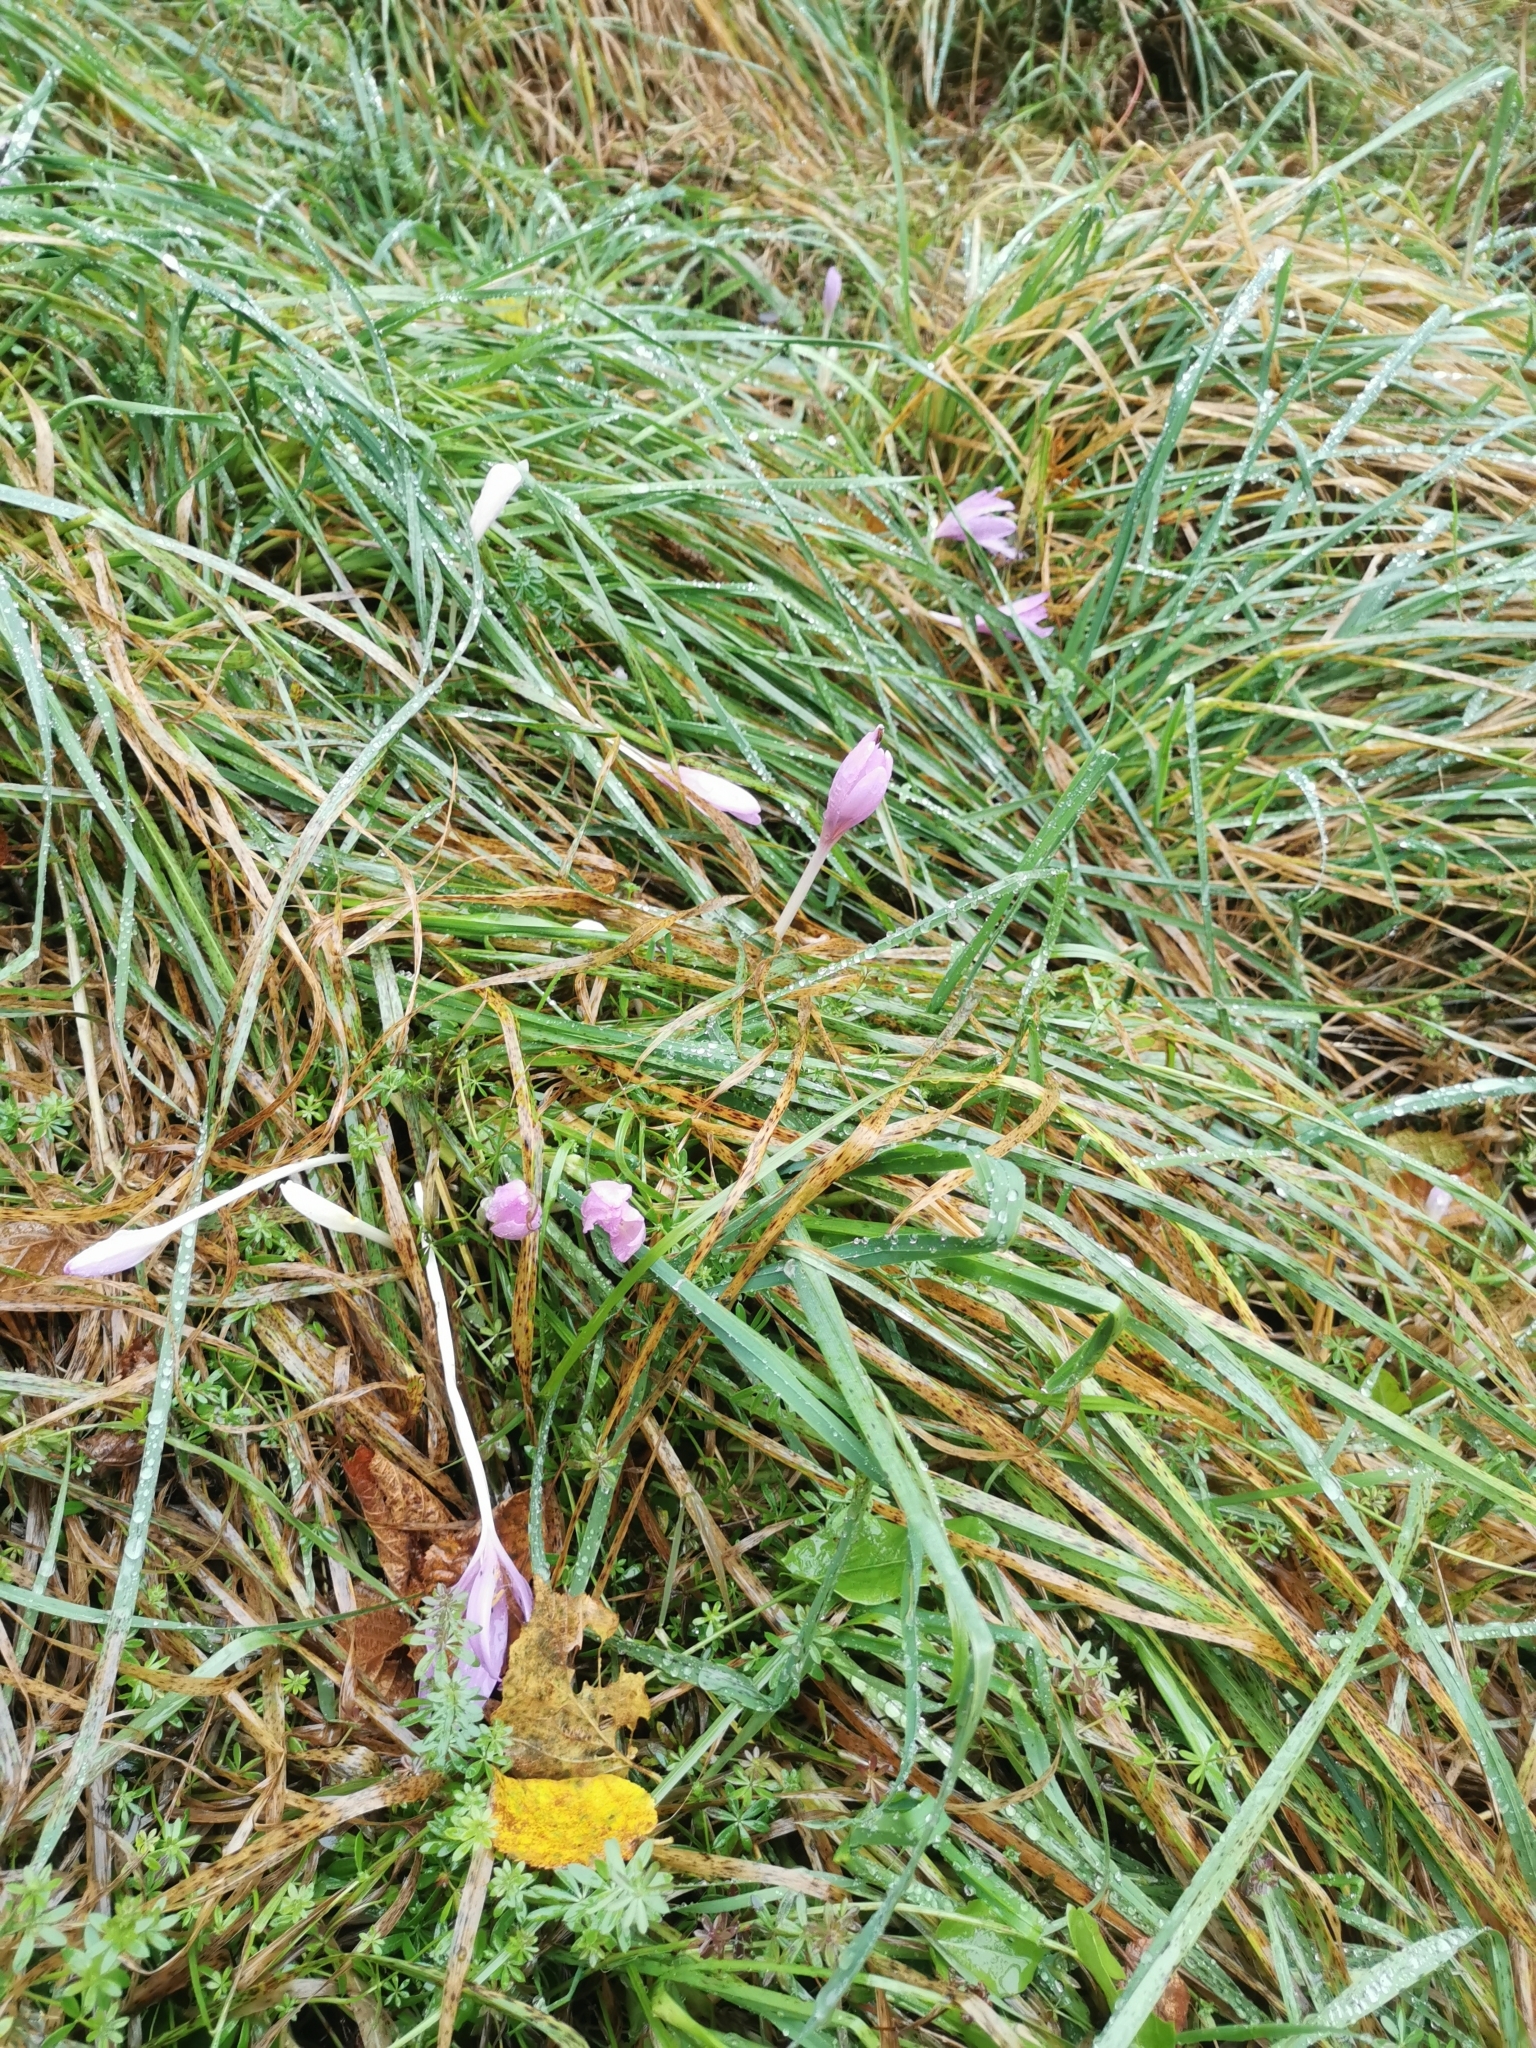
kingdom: Plantae
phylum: Tracheophyta
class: Liliopsida
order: Liliales
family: Colchicaceae
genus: Colchicum
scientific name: Colchicum autumnale
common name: Autumn crocus
